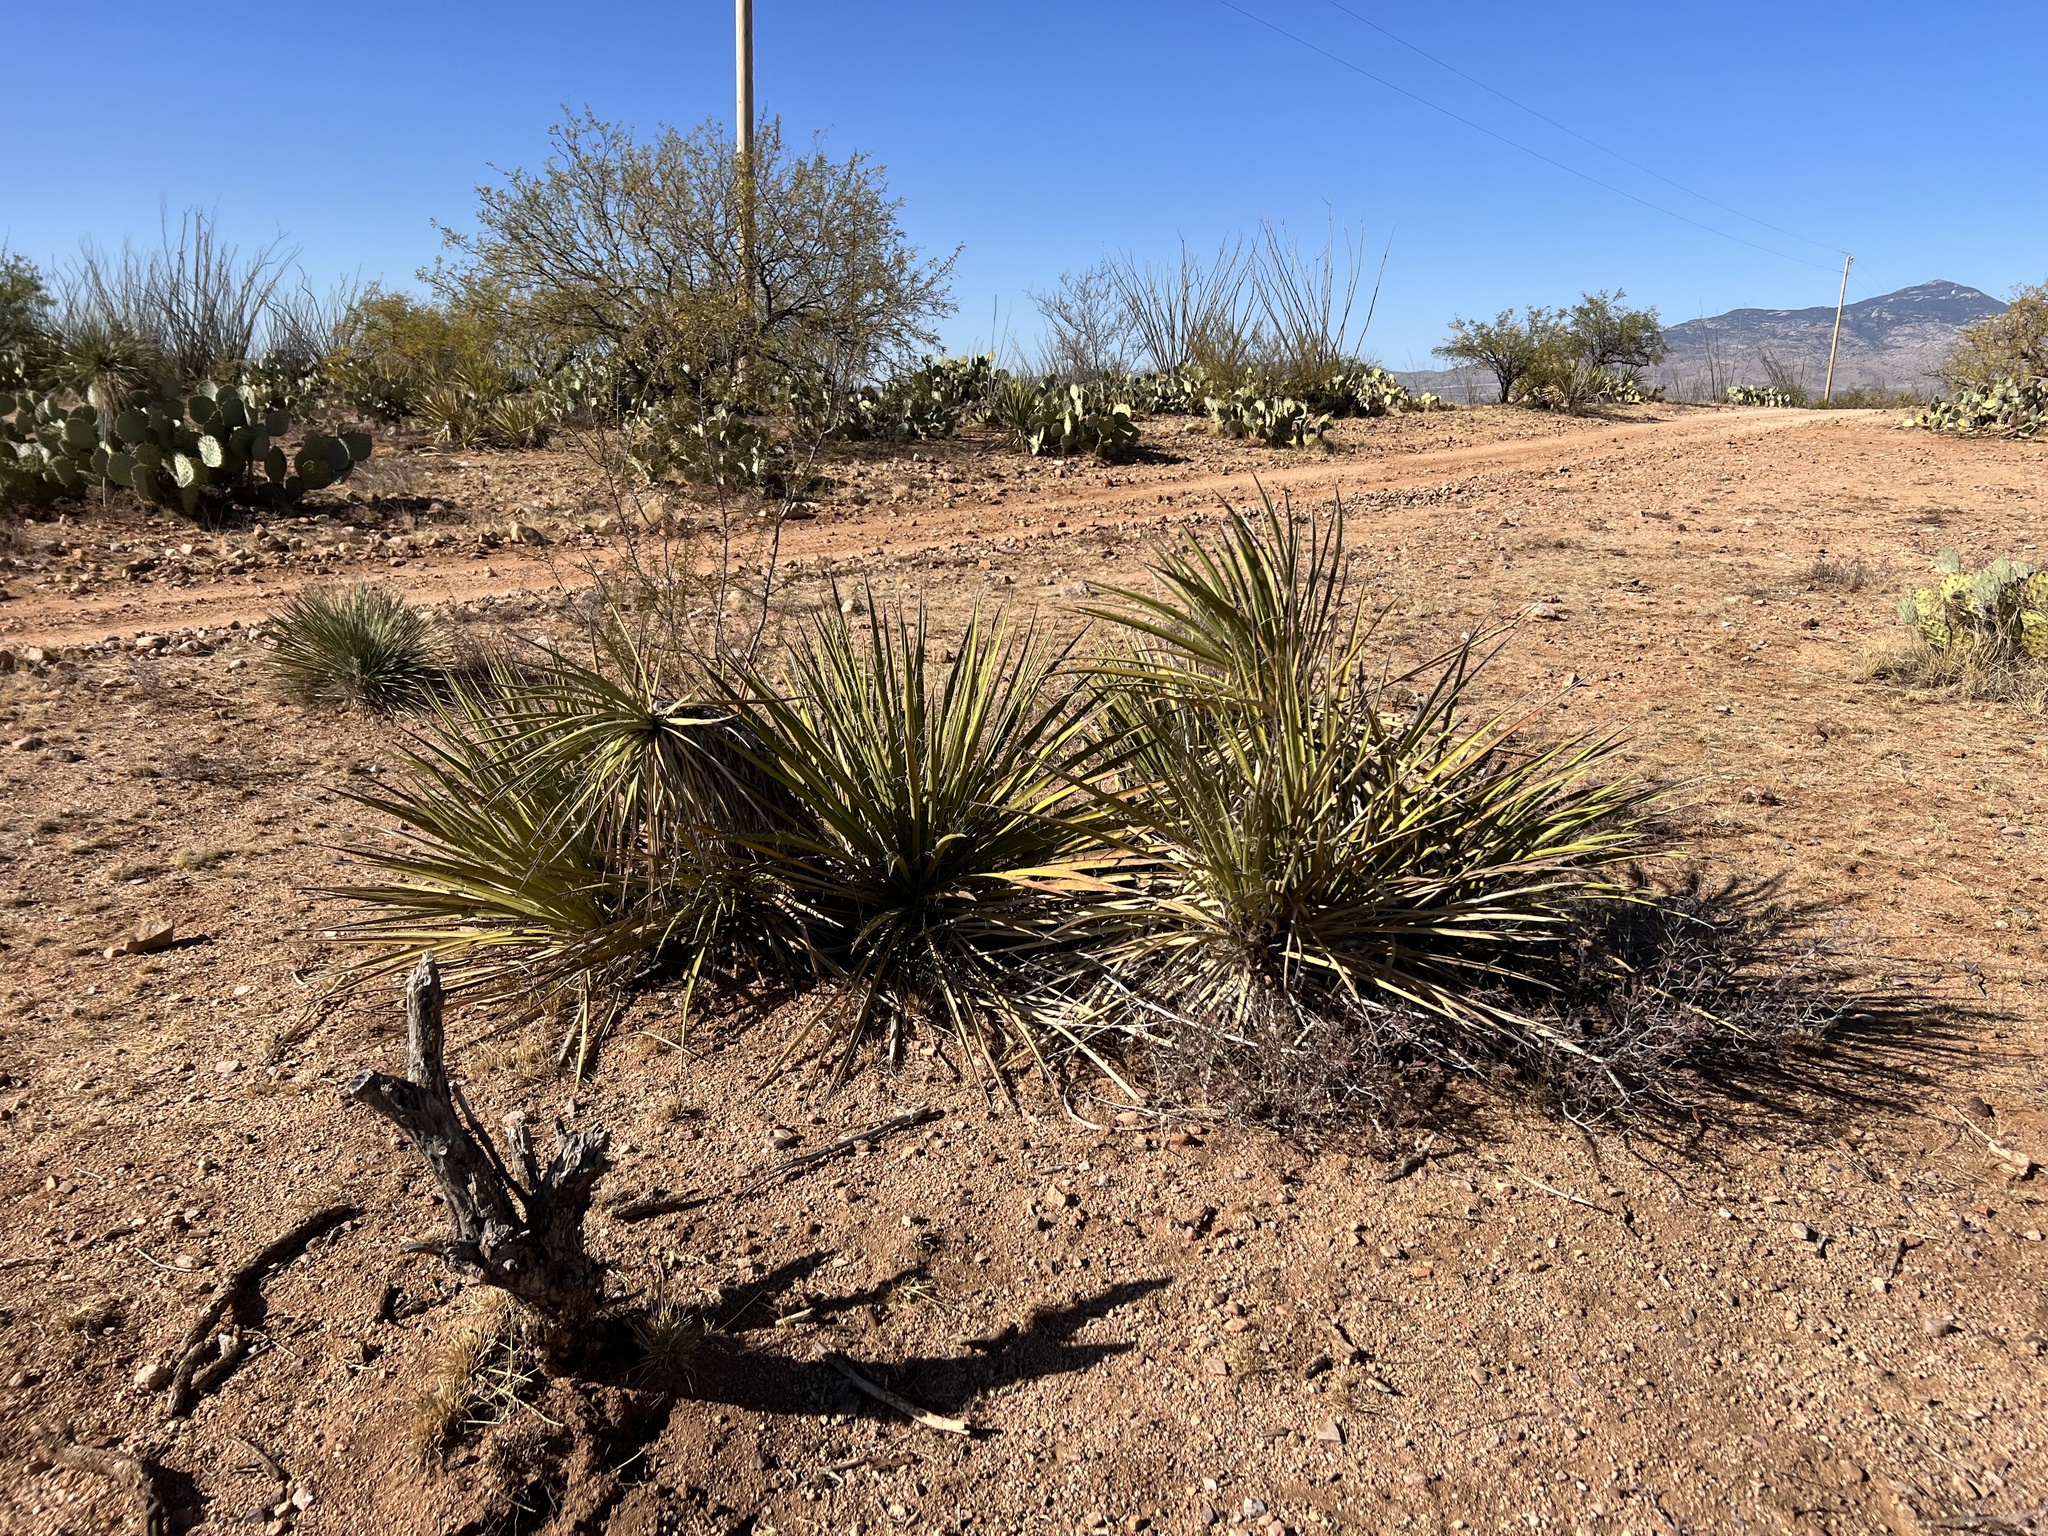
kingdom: Plantae
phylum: Tracheophyta
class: Liliopsida
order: Asparagales
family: Asparagaceae
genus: Yucca
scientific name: Yucca baccata
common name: Banana yucca
